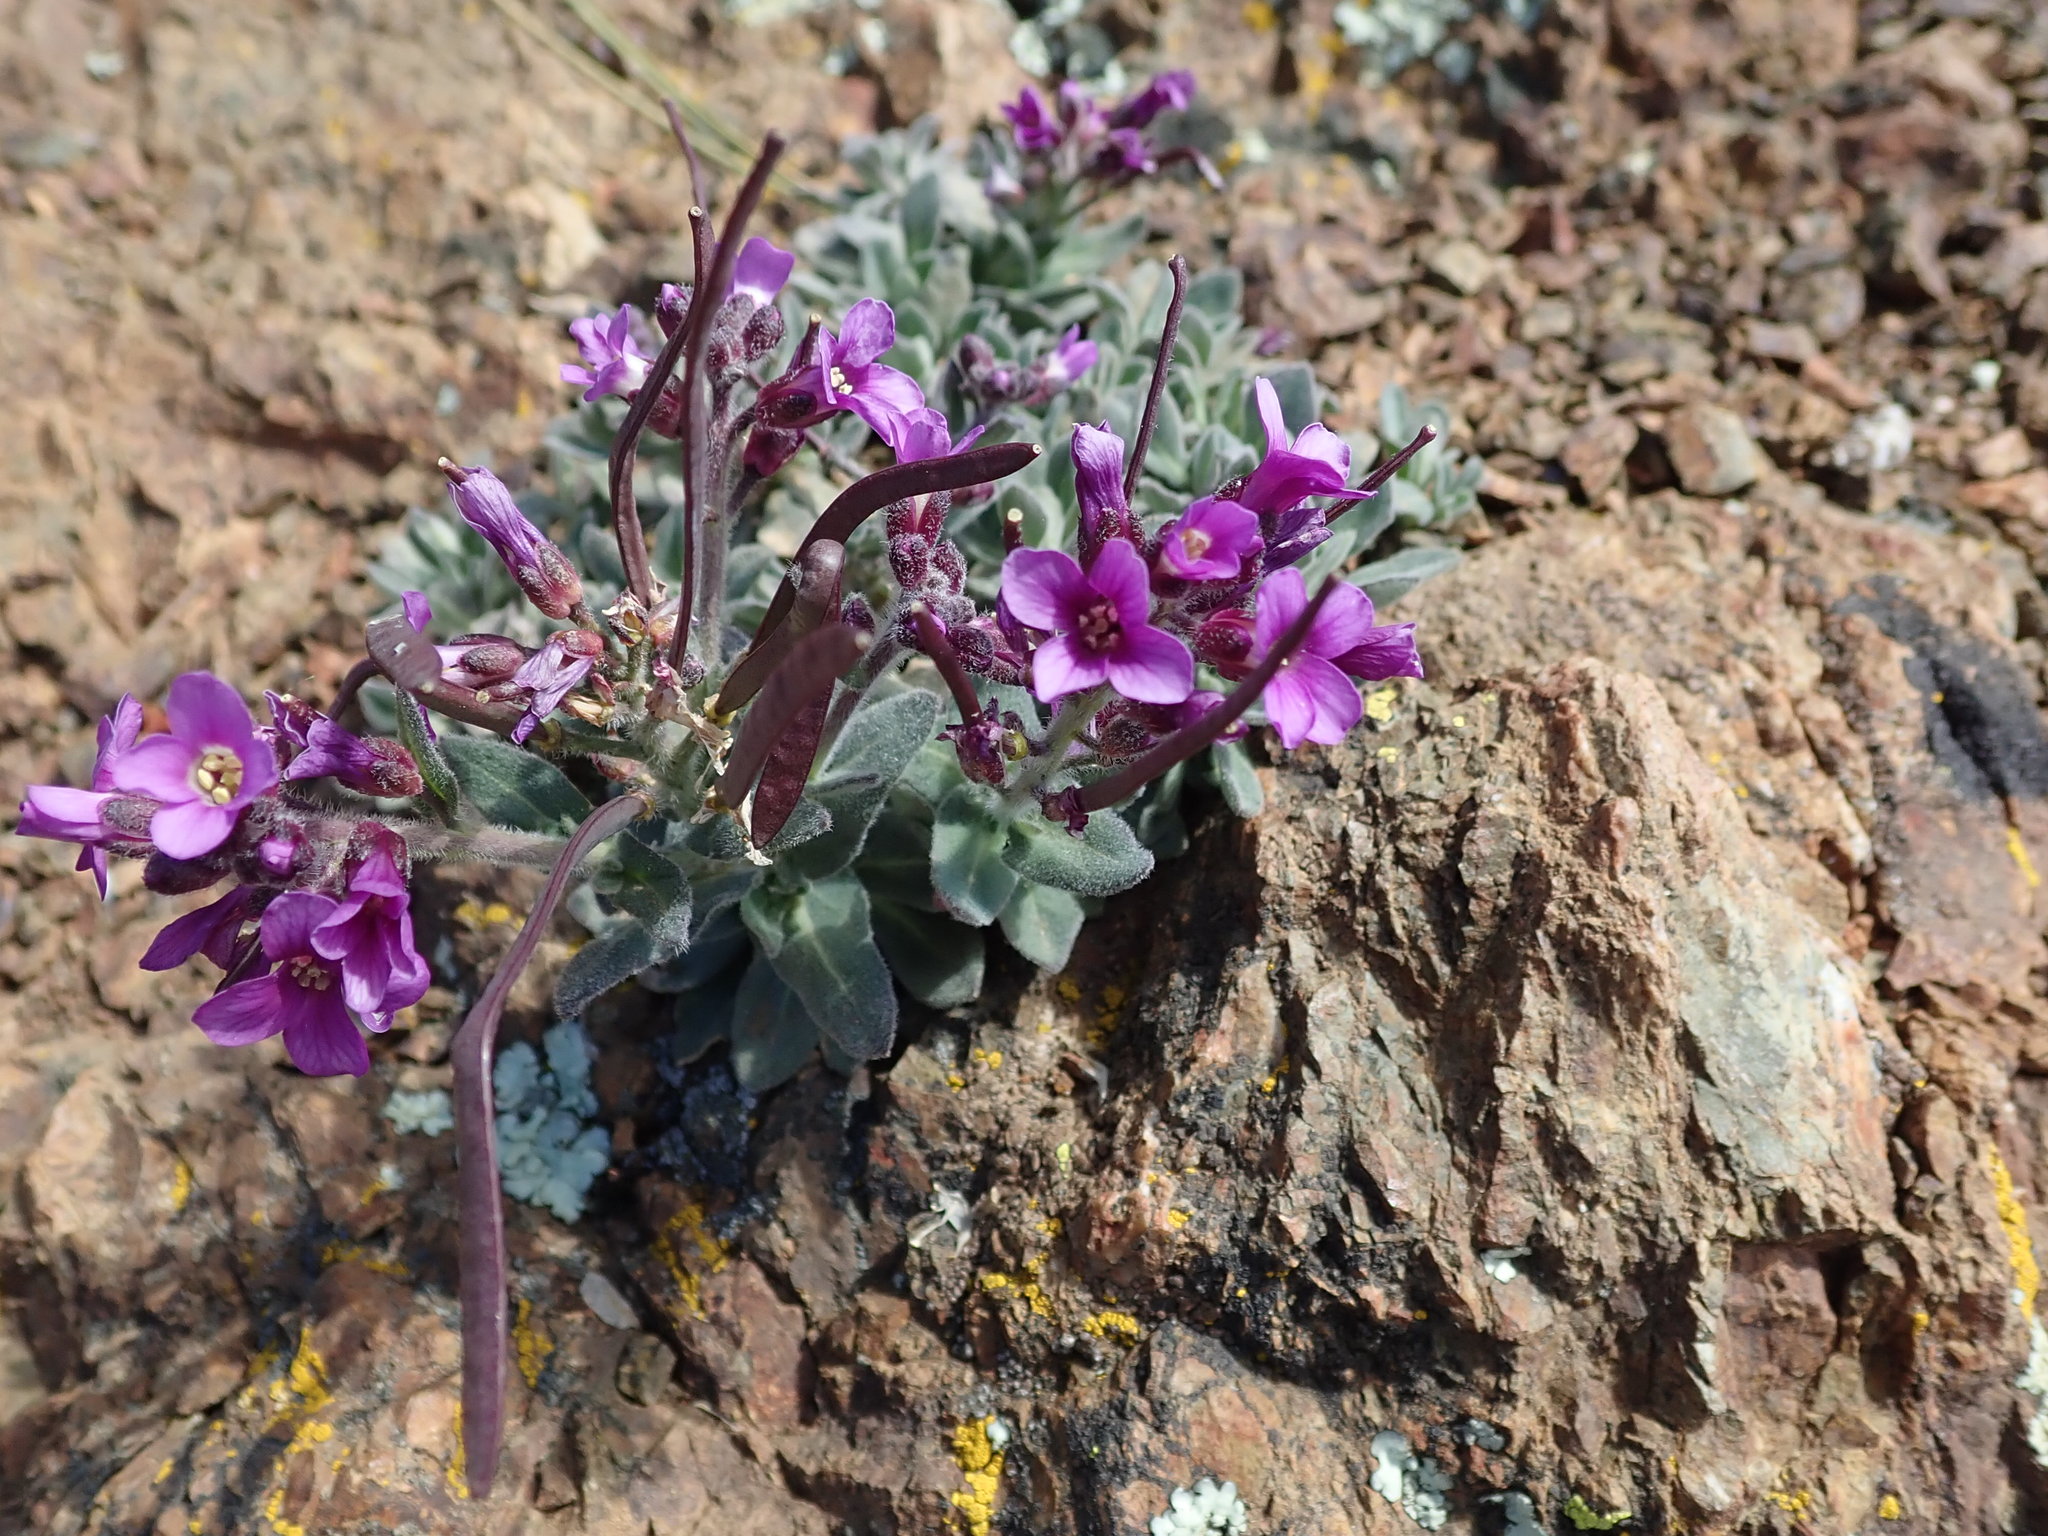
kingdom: Plantae
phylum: Tracheophyta
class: Magnoliopsida
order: Brassicales
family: Brassicaceae
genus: Boechera
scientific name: Boechera breweri
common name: Brewer's rockcress
